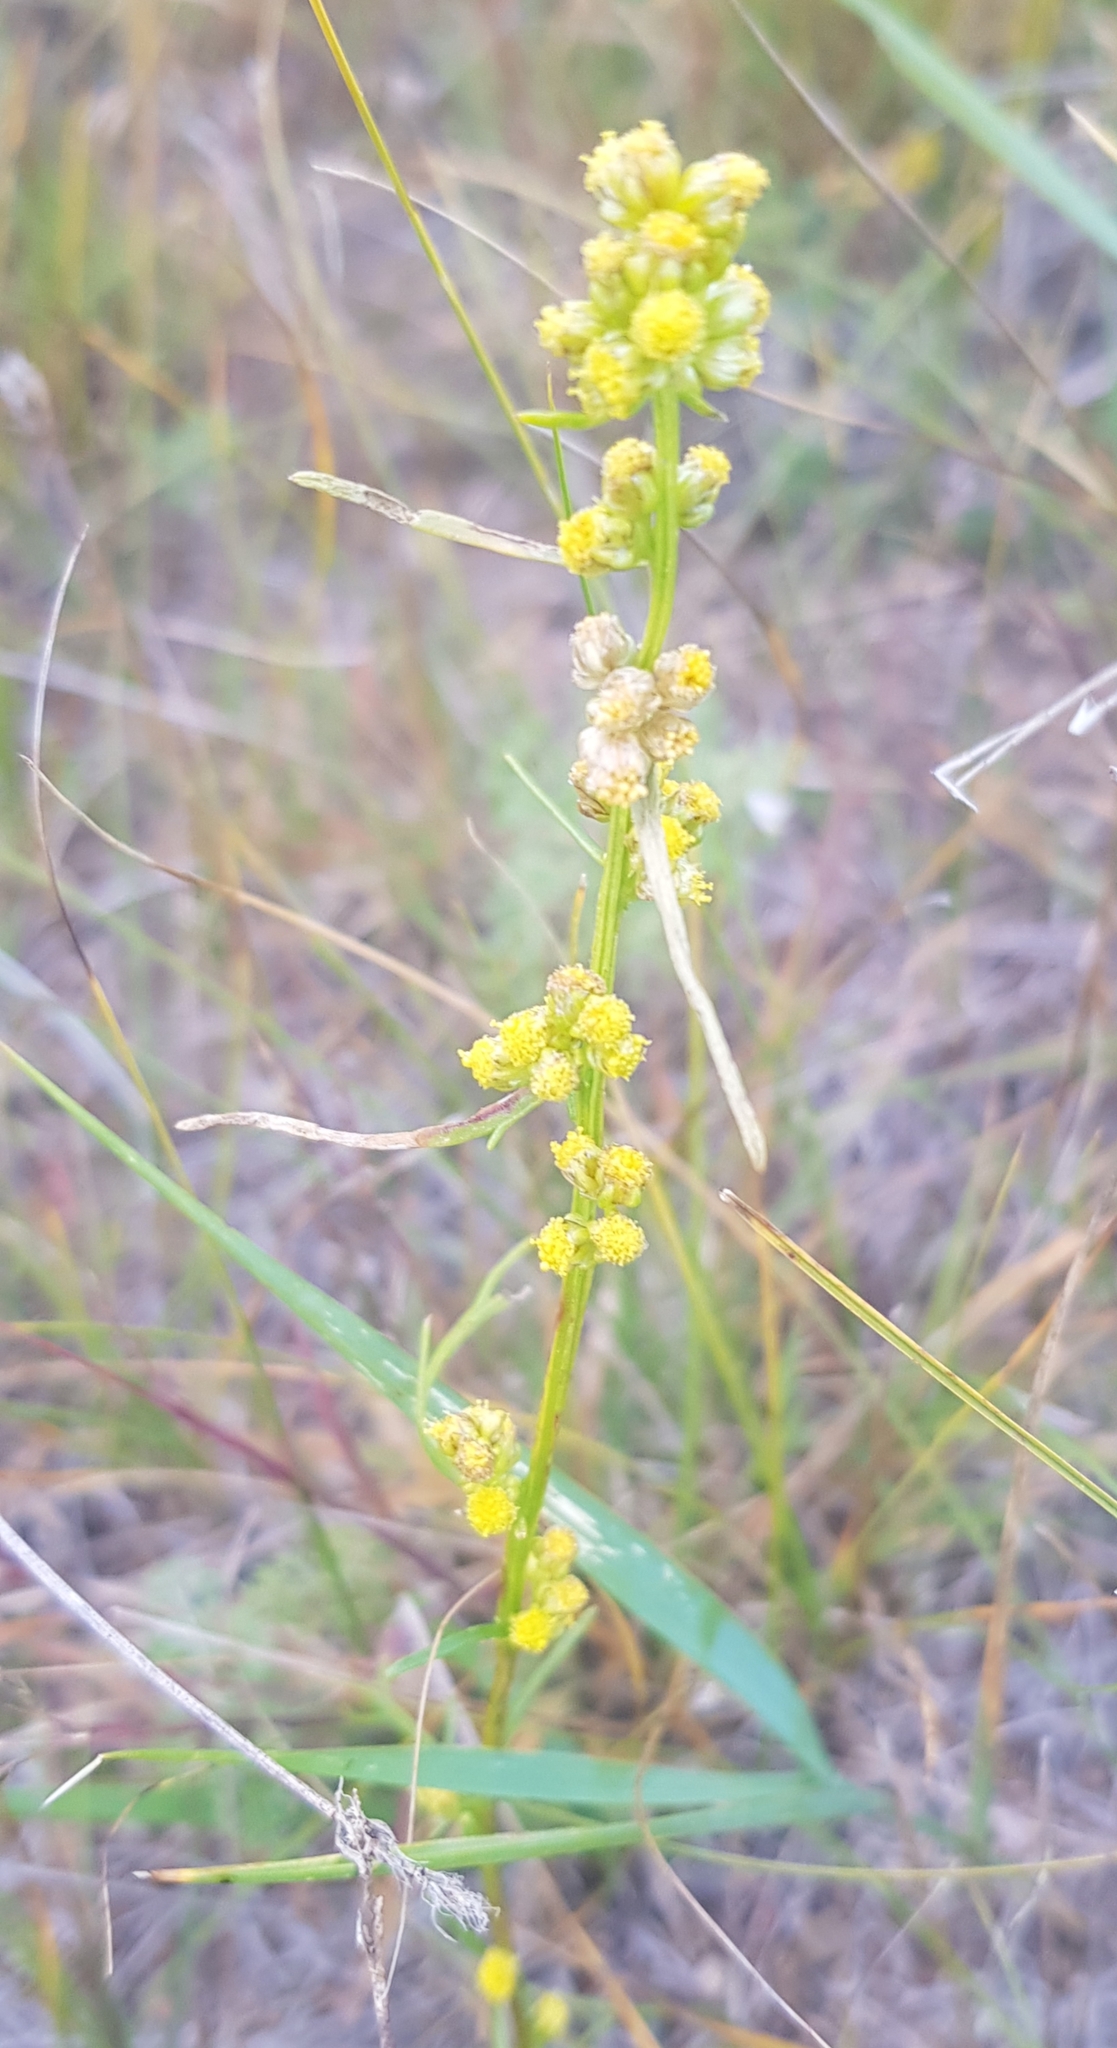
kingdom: Plantae
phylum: Tracheophyta
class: Magnoliopsida
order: Asterales
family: Asteraceae
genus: Artemisia
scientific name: Artemisia palustris
